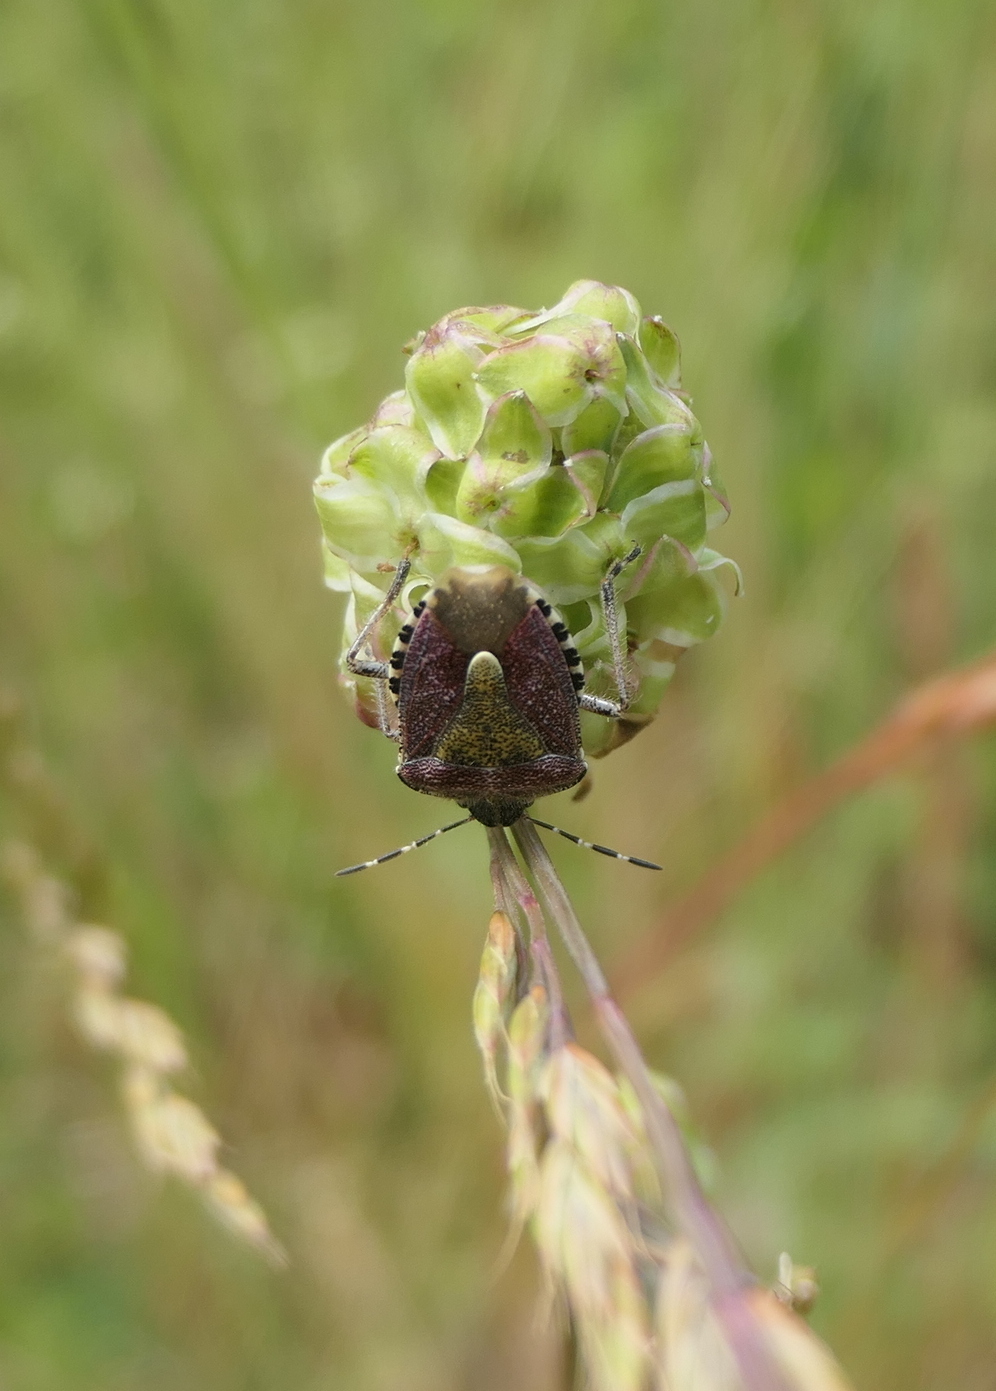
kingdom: Animalia
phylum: Arthropoda
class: Insecta
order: Hemiptera
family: Pentatomidae
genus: Dolycoris
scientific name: Dolycoris baccarum
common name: Sloe bug
